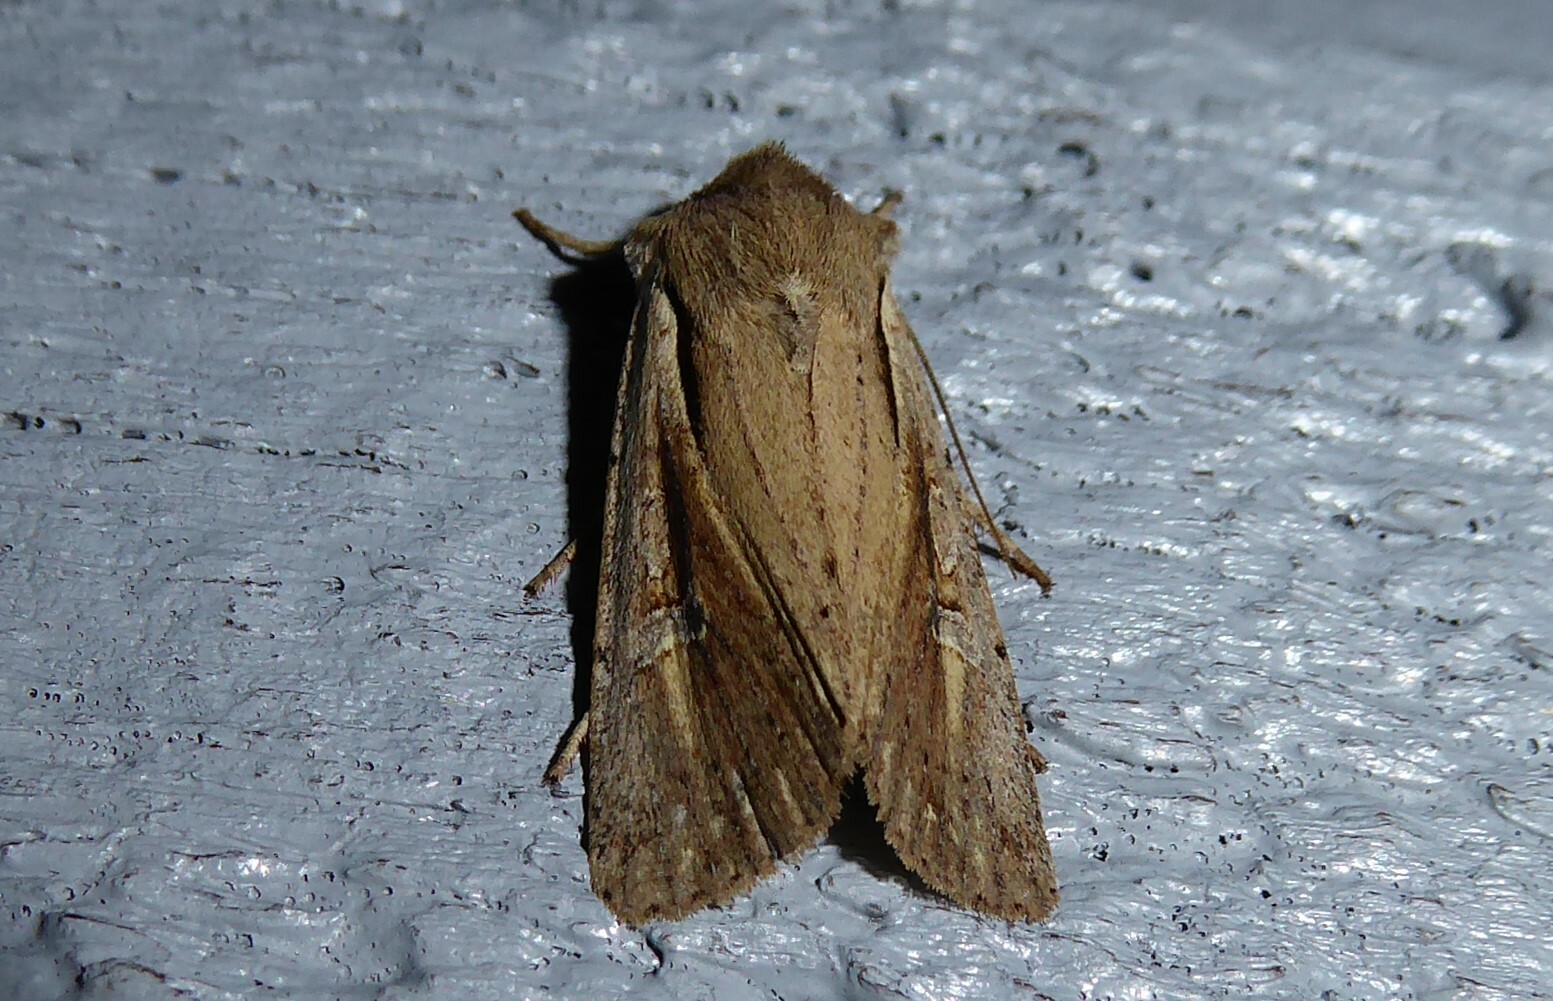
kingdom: Animalia
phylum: Arthropoda
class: Insecta
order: Lepidoptera
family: Noctuidae
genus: Ichneutica
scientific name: Ichneutica atristriga
